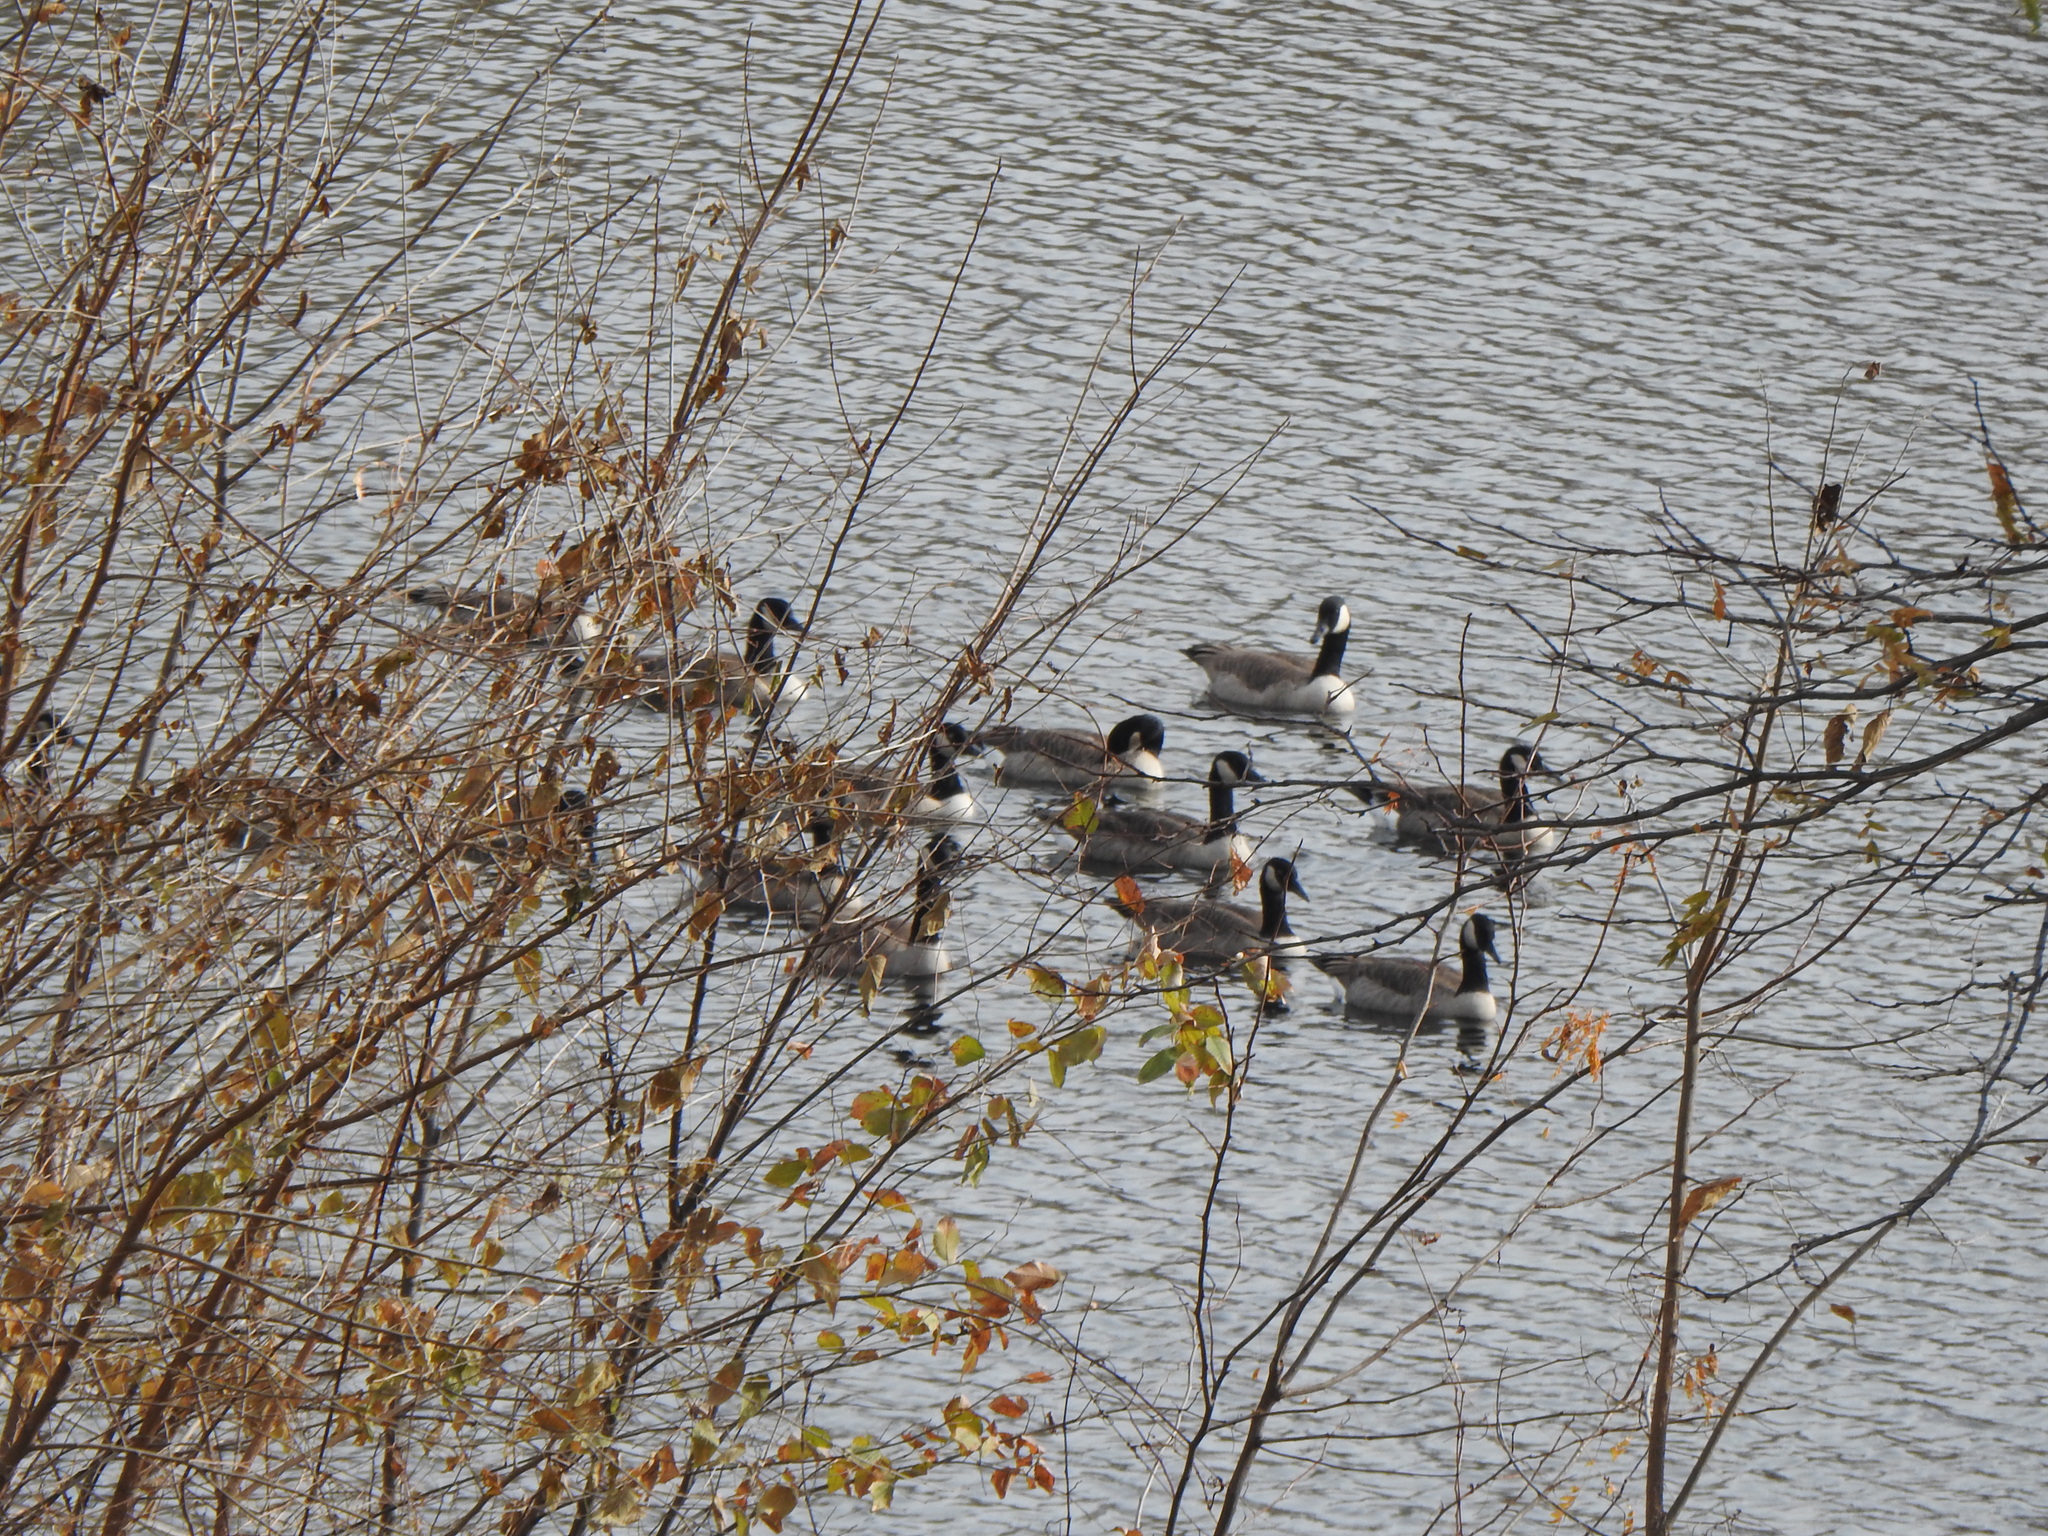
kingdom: Animalia
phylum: Chordata
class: Aves
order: Anseriformes
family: Anatidae
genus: Branta
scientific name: Branta canadensis
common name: Canada goose
